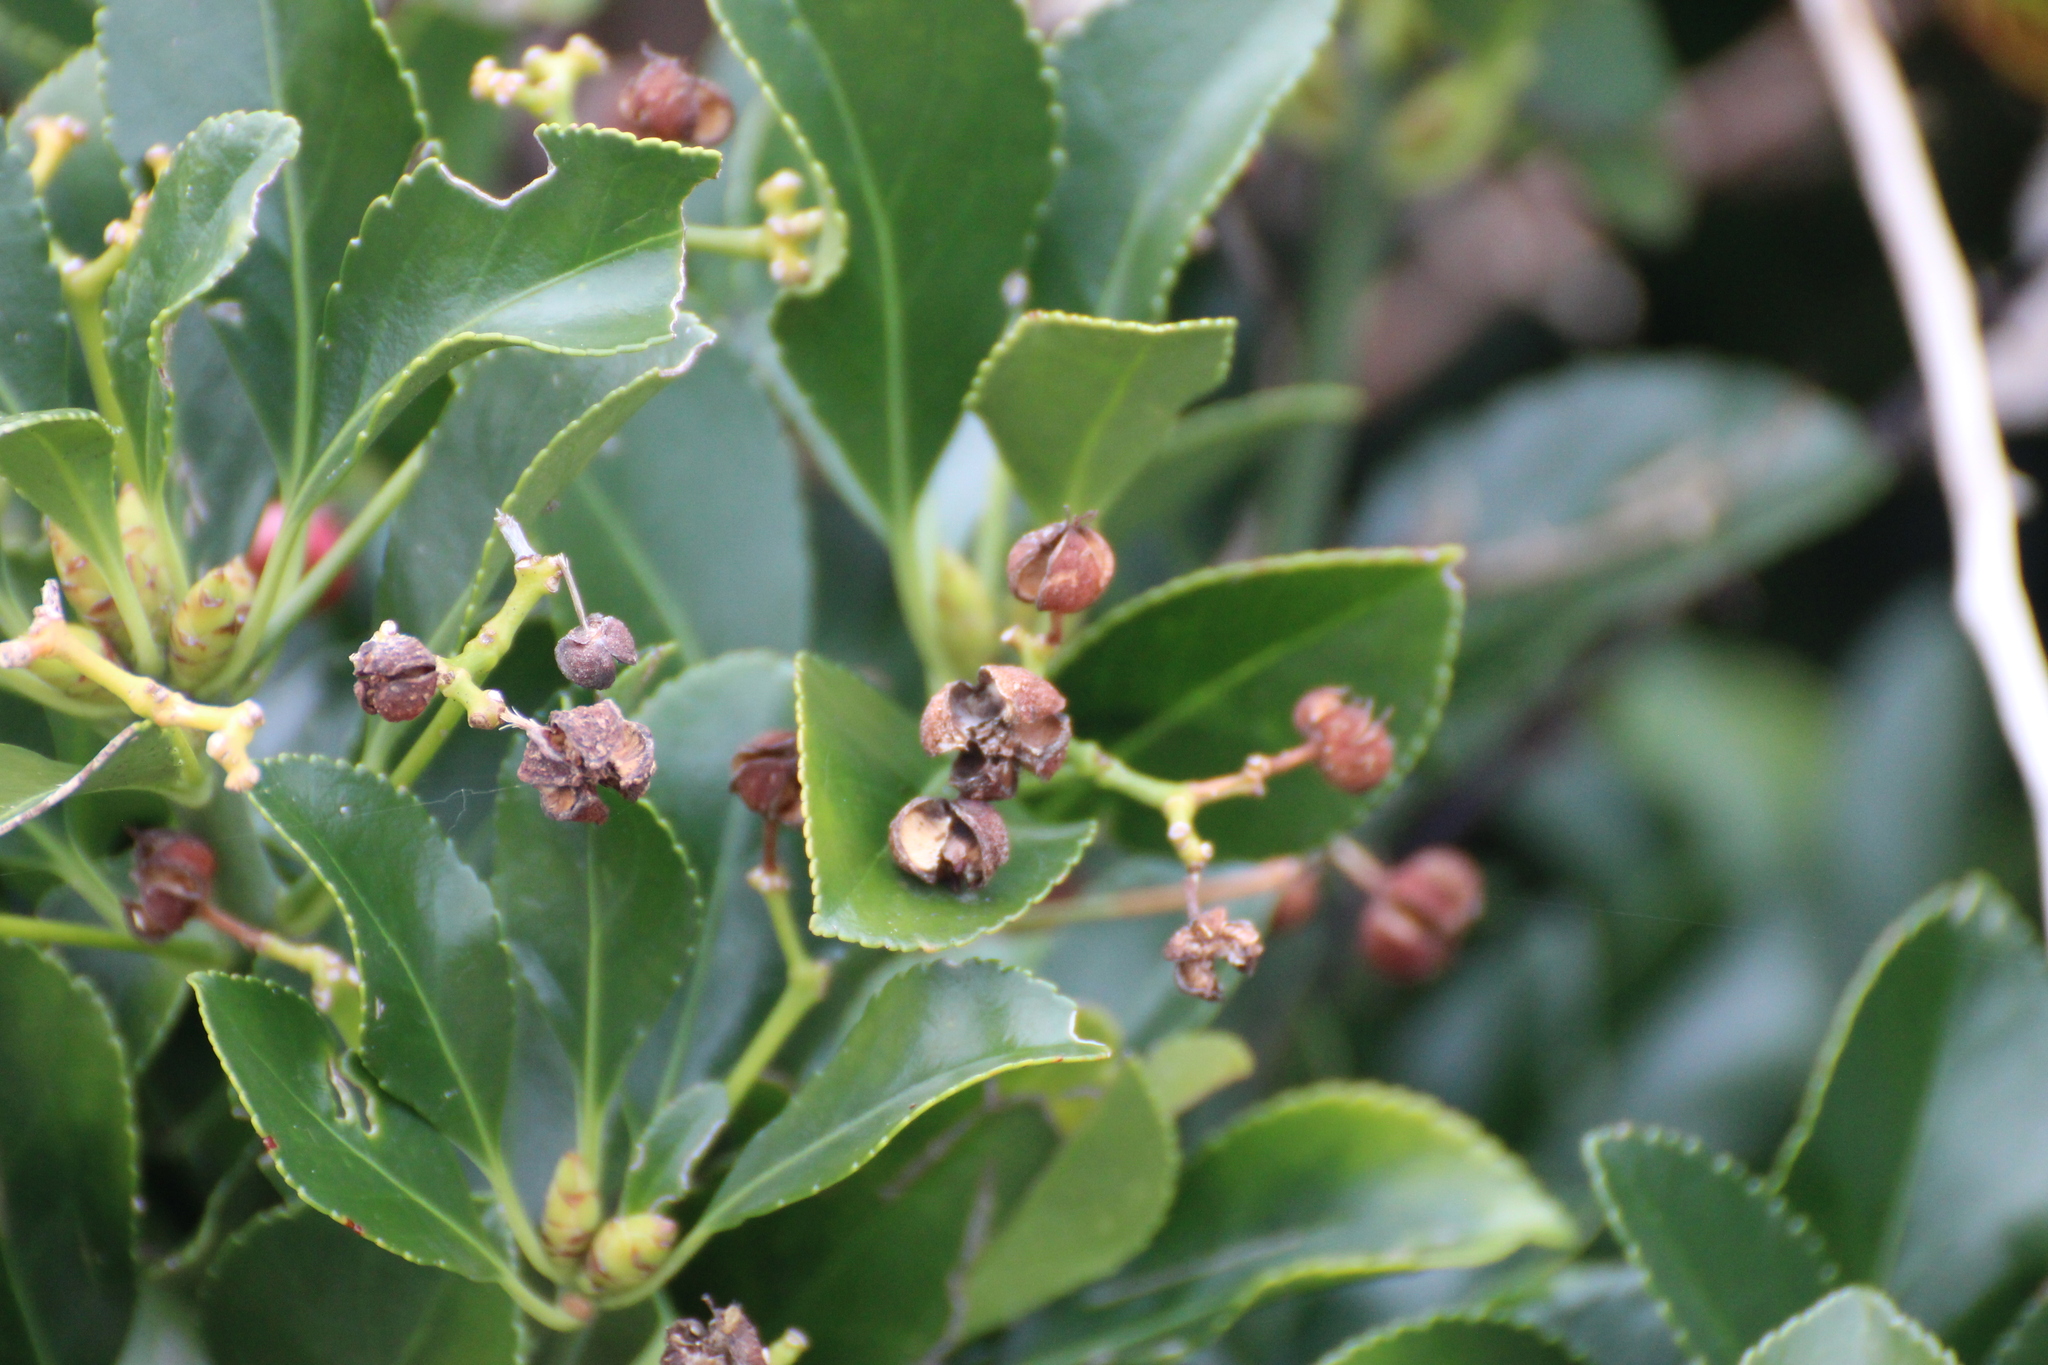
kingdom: Plantae
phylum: Tracheophyta
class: Magnoliopsida
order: Celastrales
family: Celastraceae
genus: Euonymus
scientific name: Euonymus japonicus
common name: Japanese spindletree
